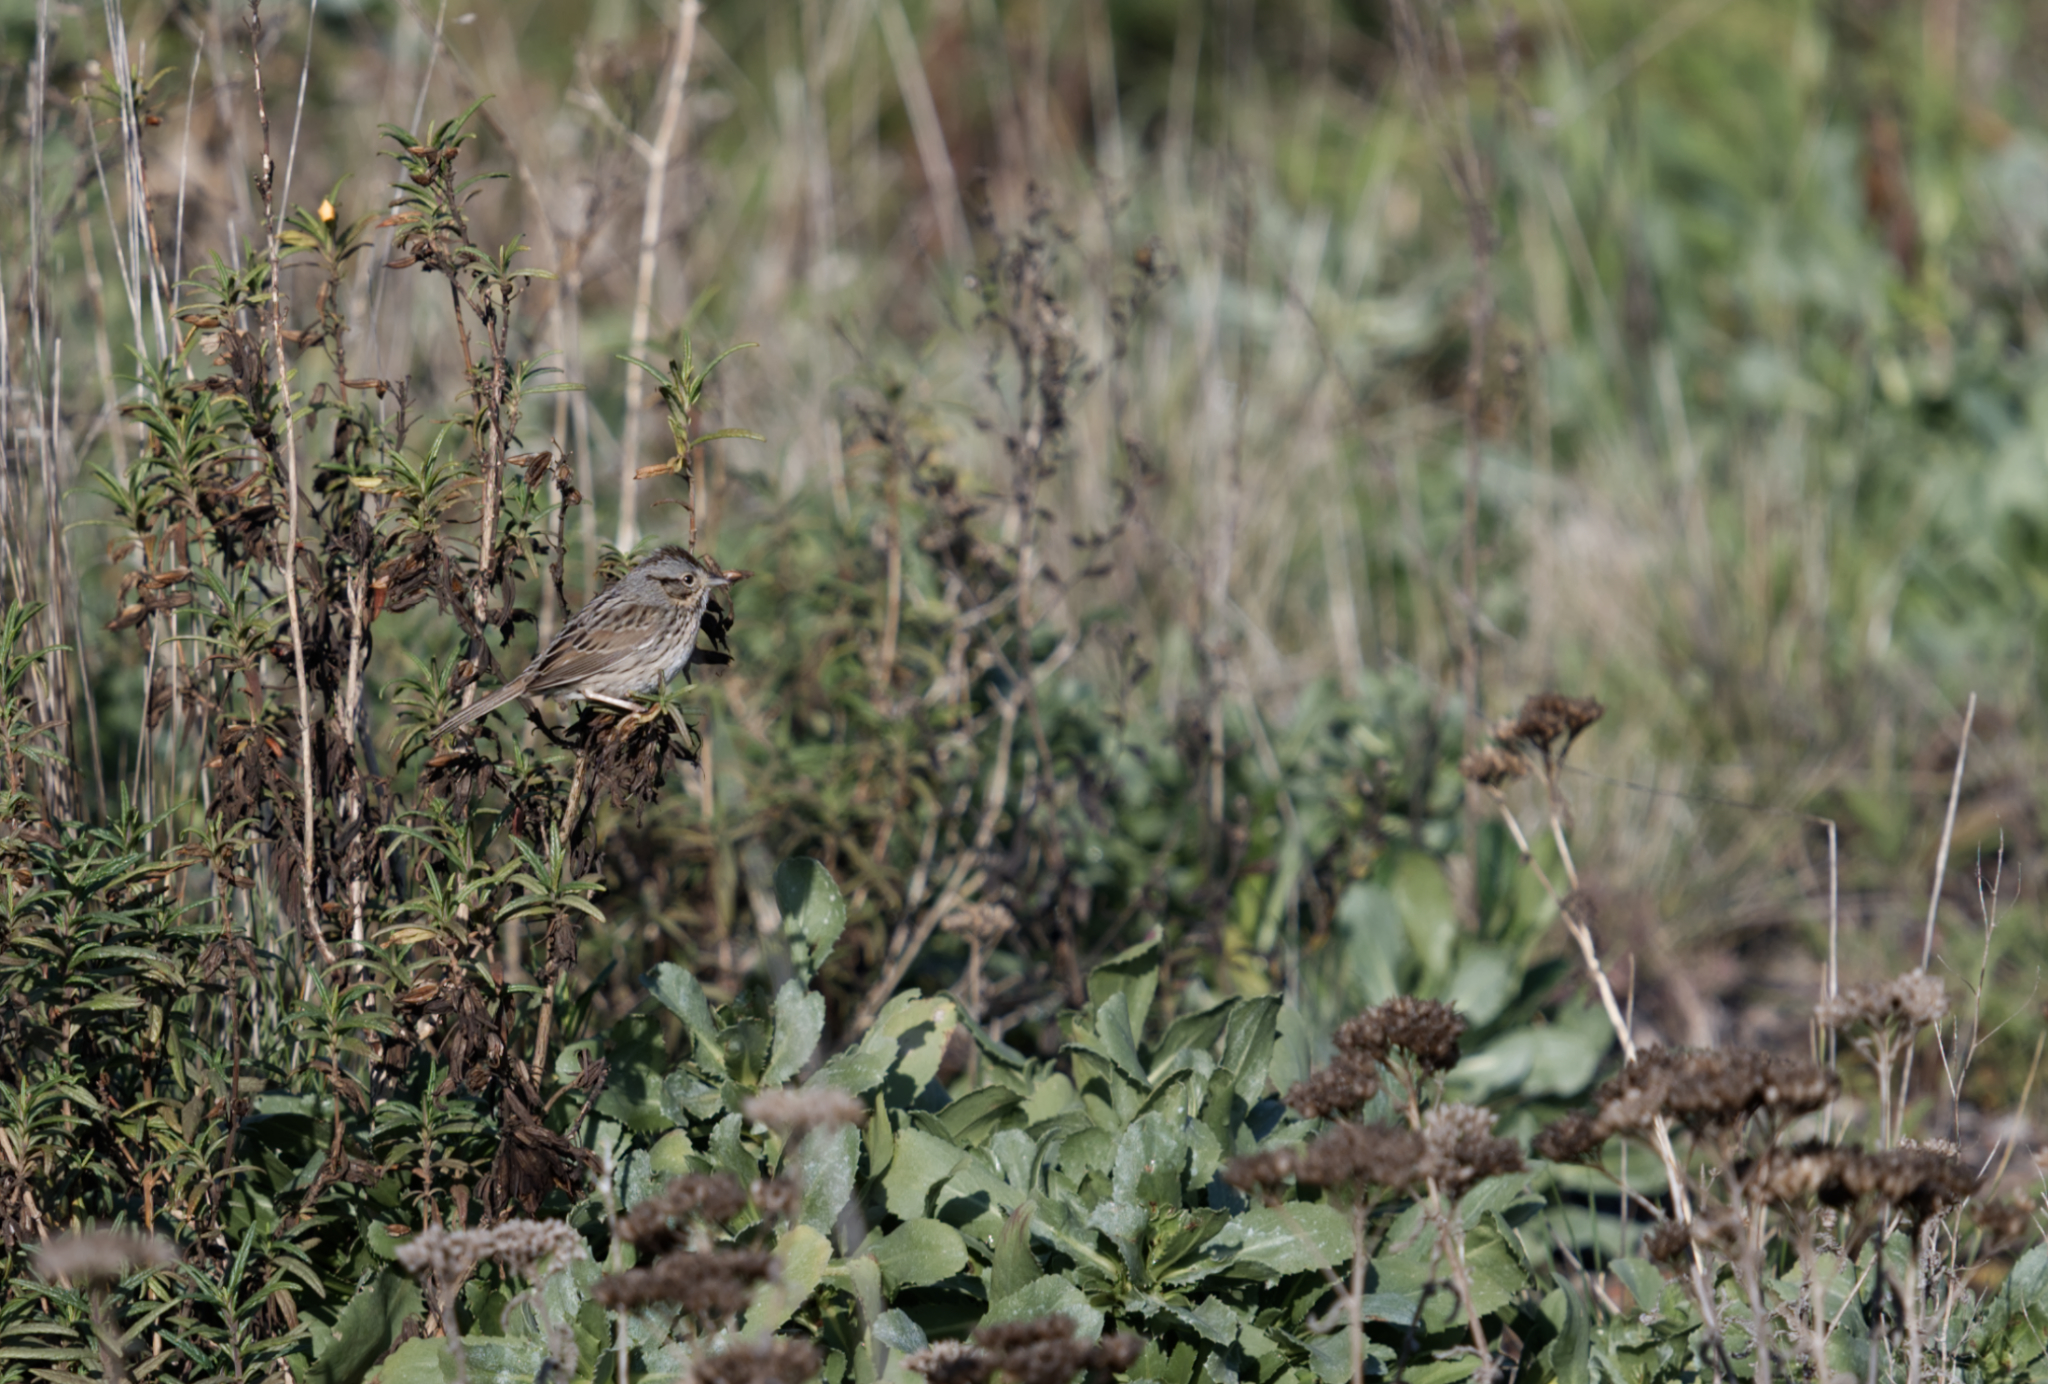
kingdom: Animalia
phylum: Chordata
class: Aves
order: Passeriformes
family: Passerellidae
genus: Melospiza
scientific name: Melospiza lincolnii
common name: Lincoln's sparrow
